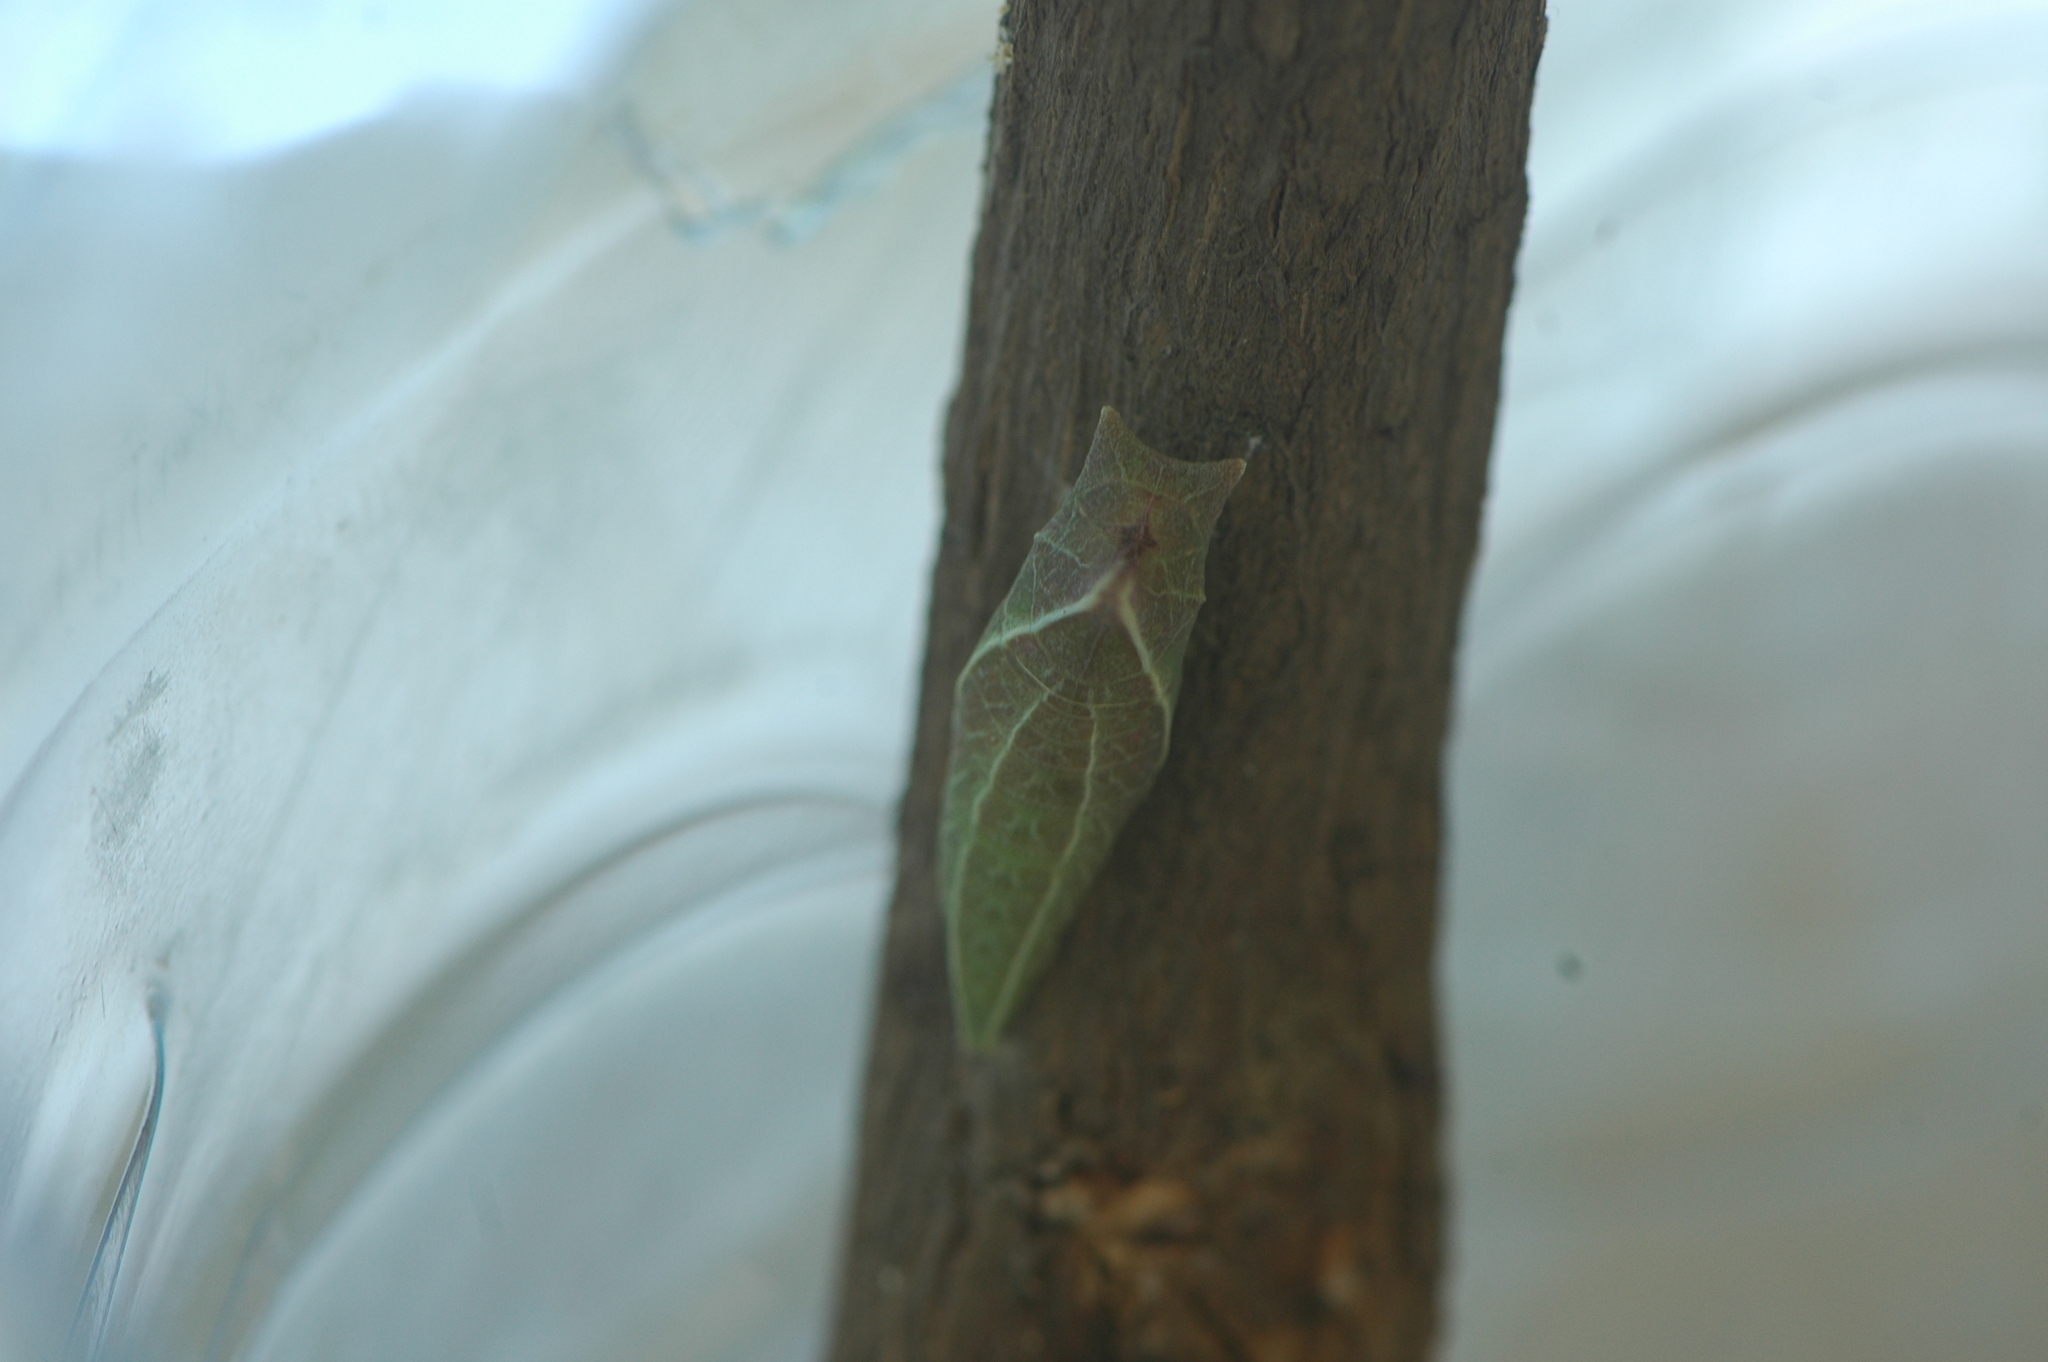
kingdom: Animalia
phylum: Arthropoda
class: Insecta
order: Lepidoptera
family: Papilionidae
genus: Graphium
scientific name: Graphium angolanus
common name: Angola white-lady swordtail
